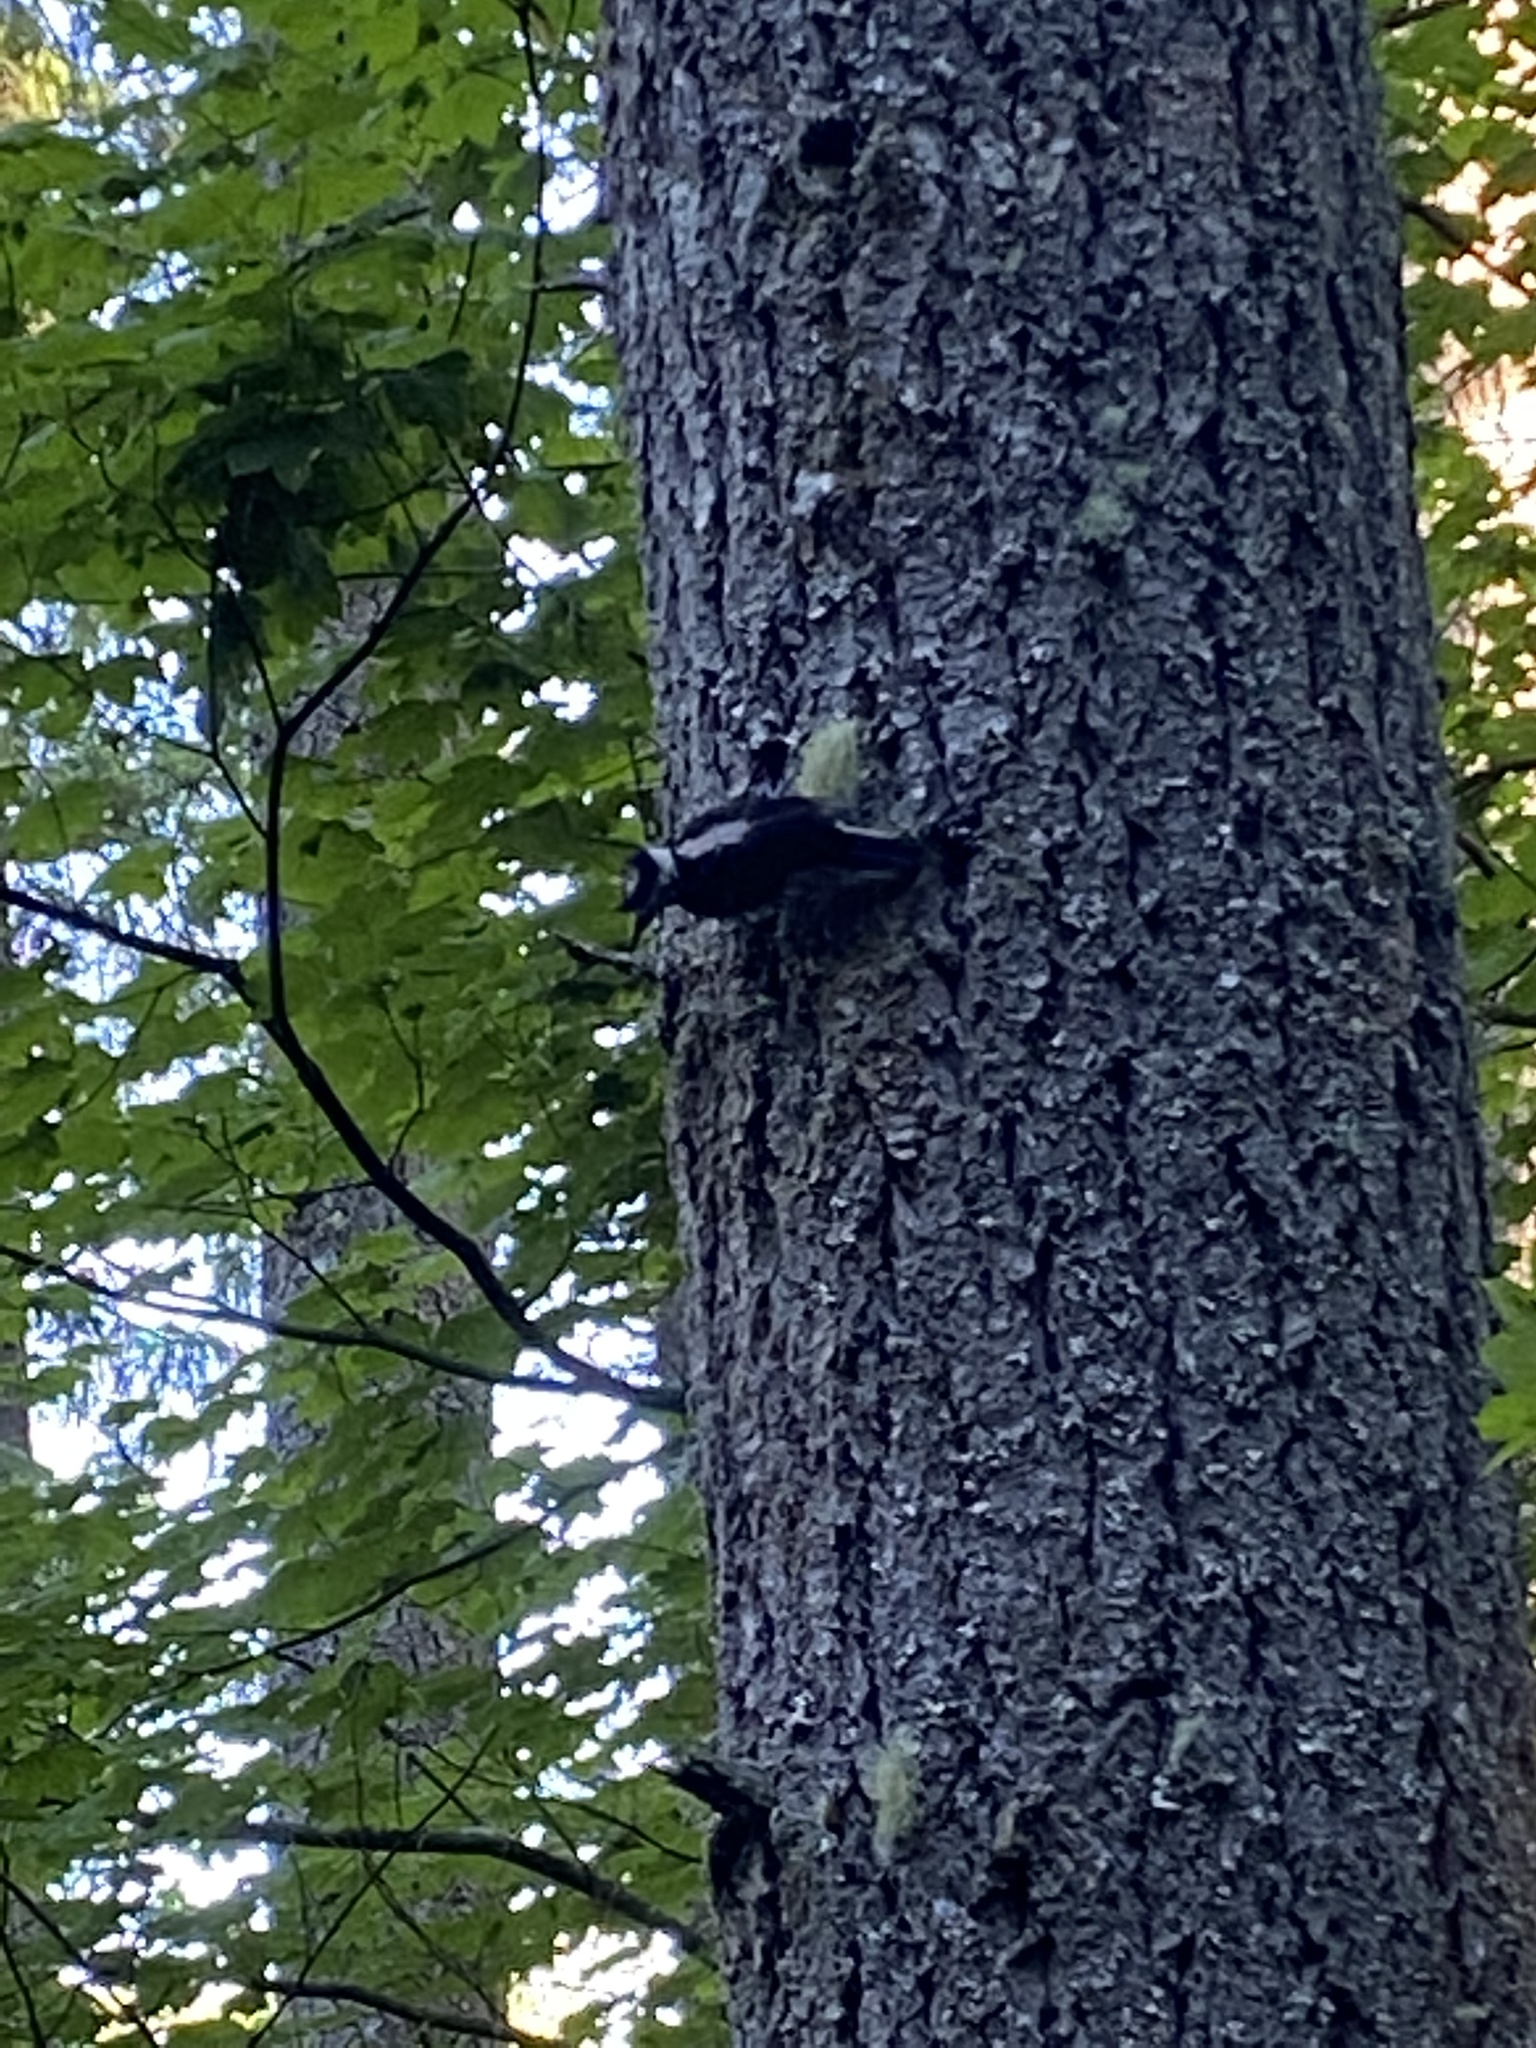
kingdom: Animalia
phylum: Chordata
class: Aves
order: Piciformes
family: Picidae
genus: Leuconotopicus
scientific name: Leuconotopicus villosus
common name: Hairy woodpecker
